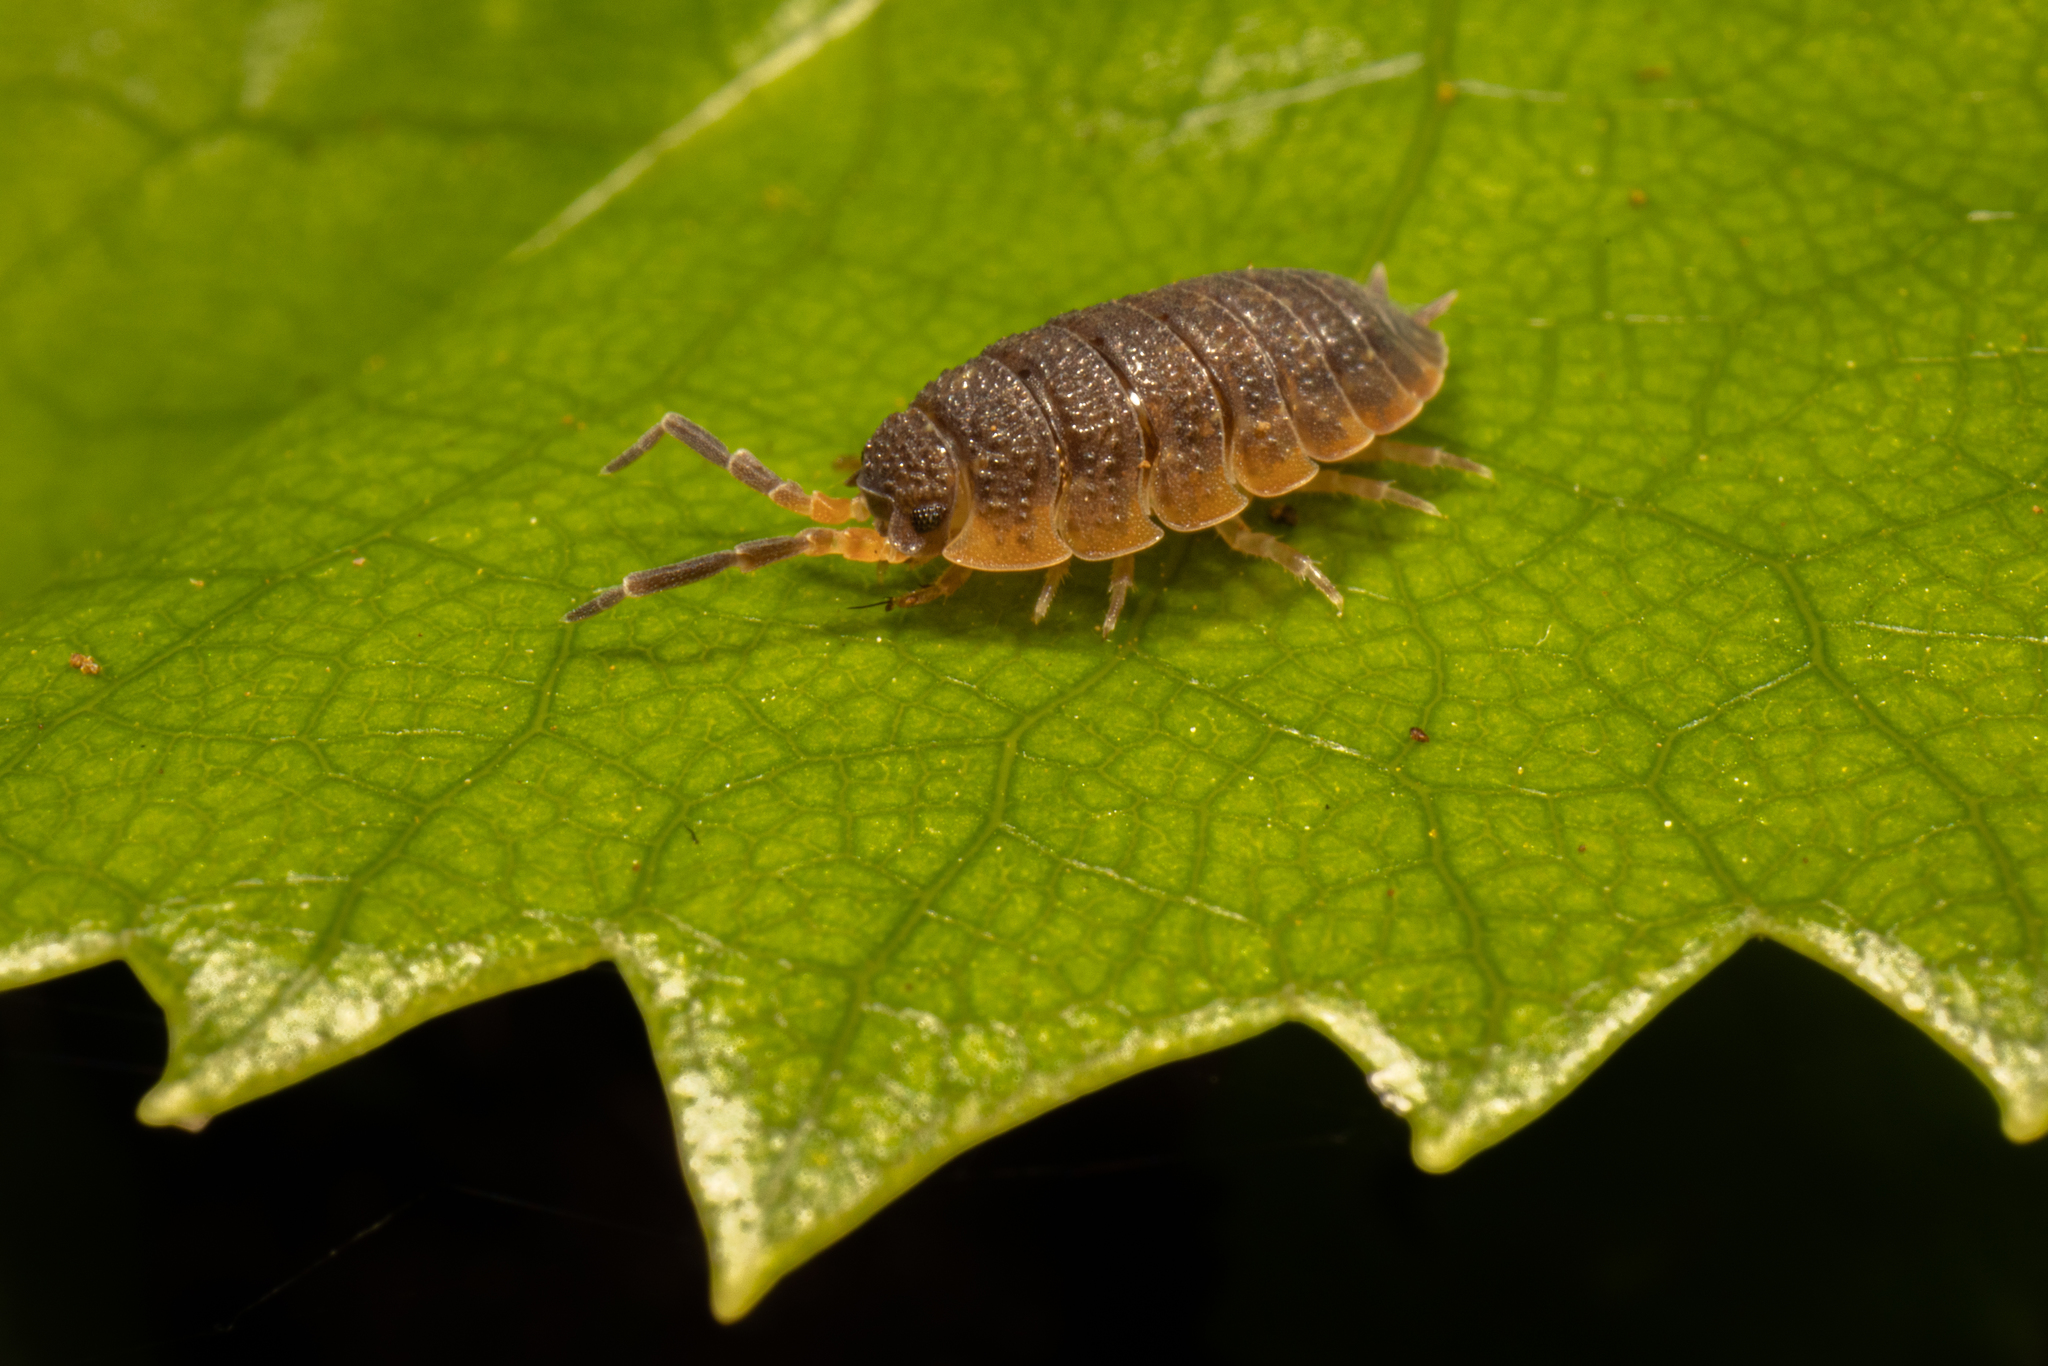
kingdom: Animalia
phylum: Arthropoda
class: Malacostraca
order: Isopoda
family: Porcellionidae
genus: Porcellio
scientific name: Porcellio scaber
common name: Common rough woodlouse
